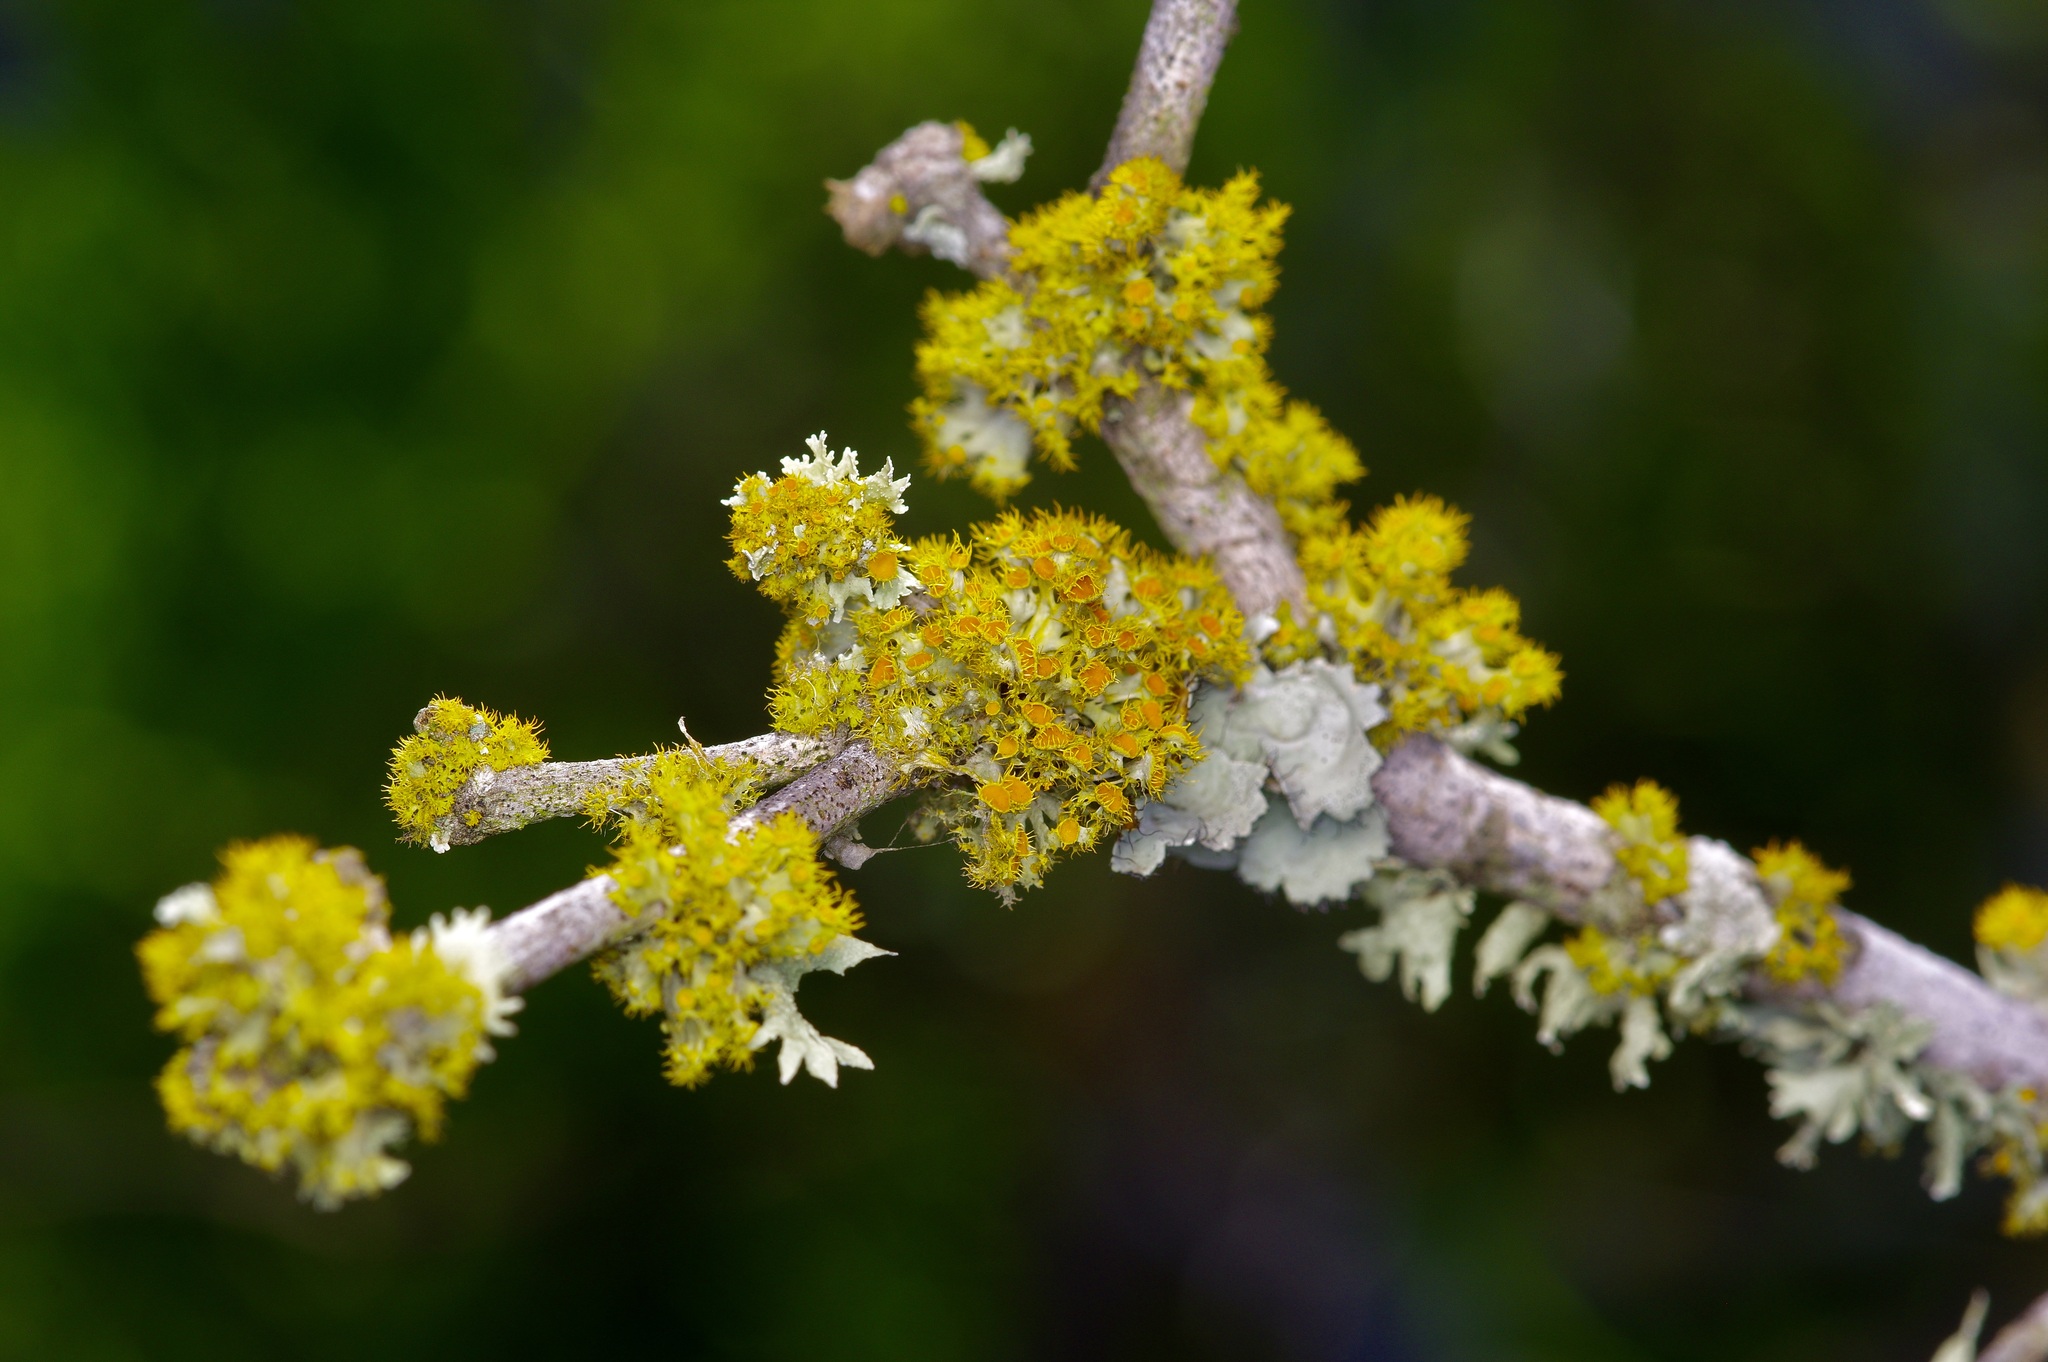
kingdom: Fungi
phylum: Ascomycota
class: Lecanoromycetes
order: Teloschistales
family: Teloschistaceae
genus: Niorma
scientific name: Niorma chrysophthalma
